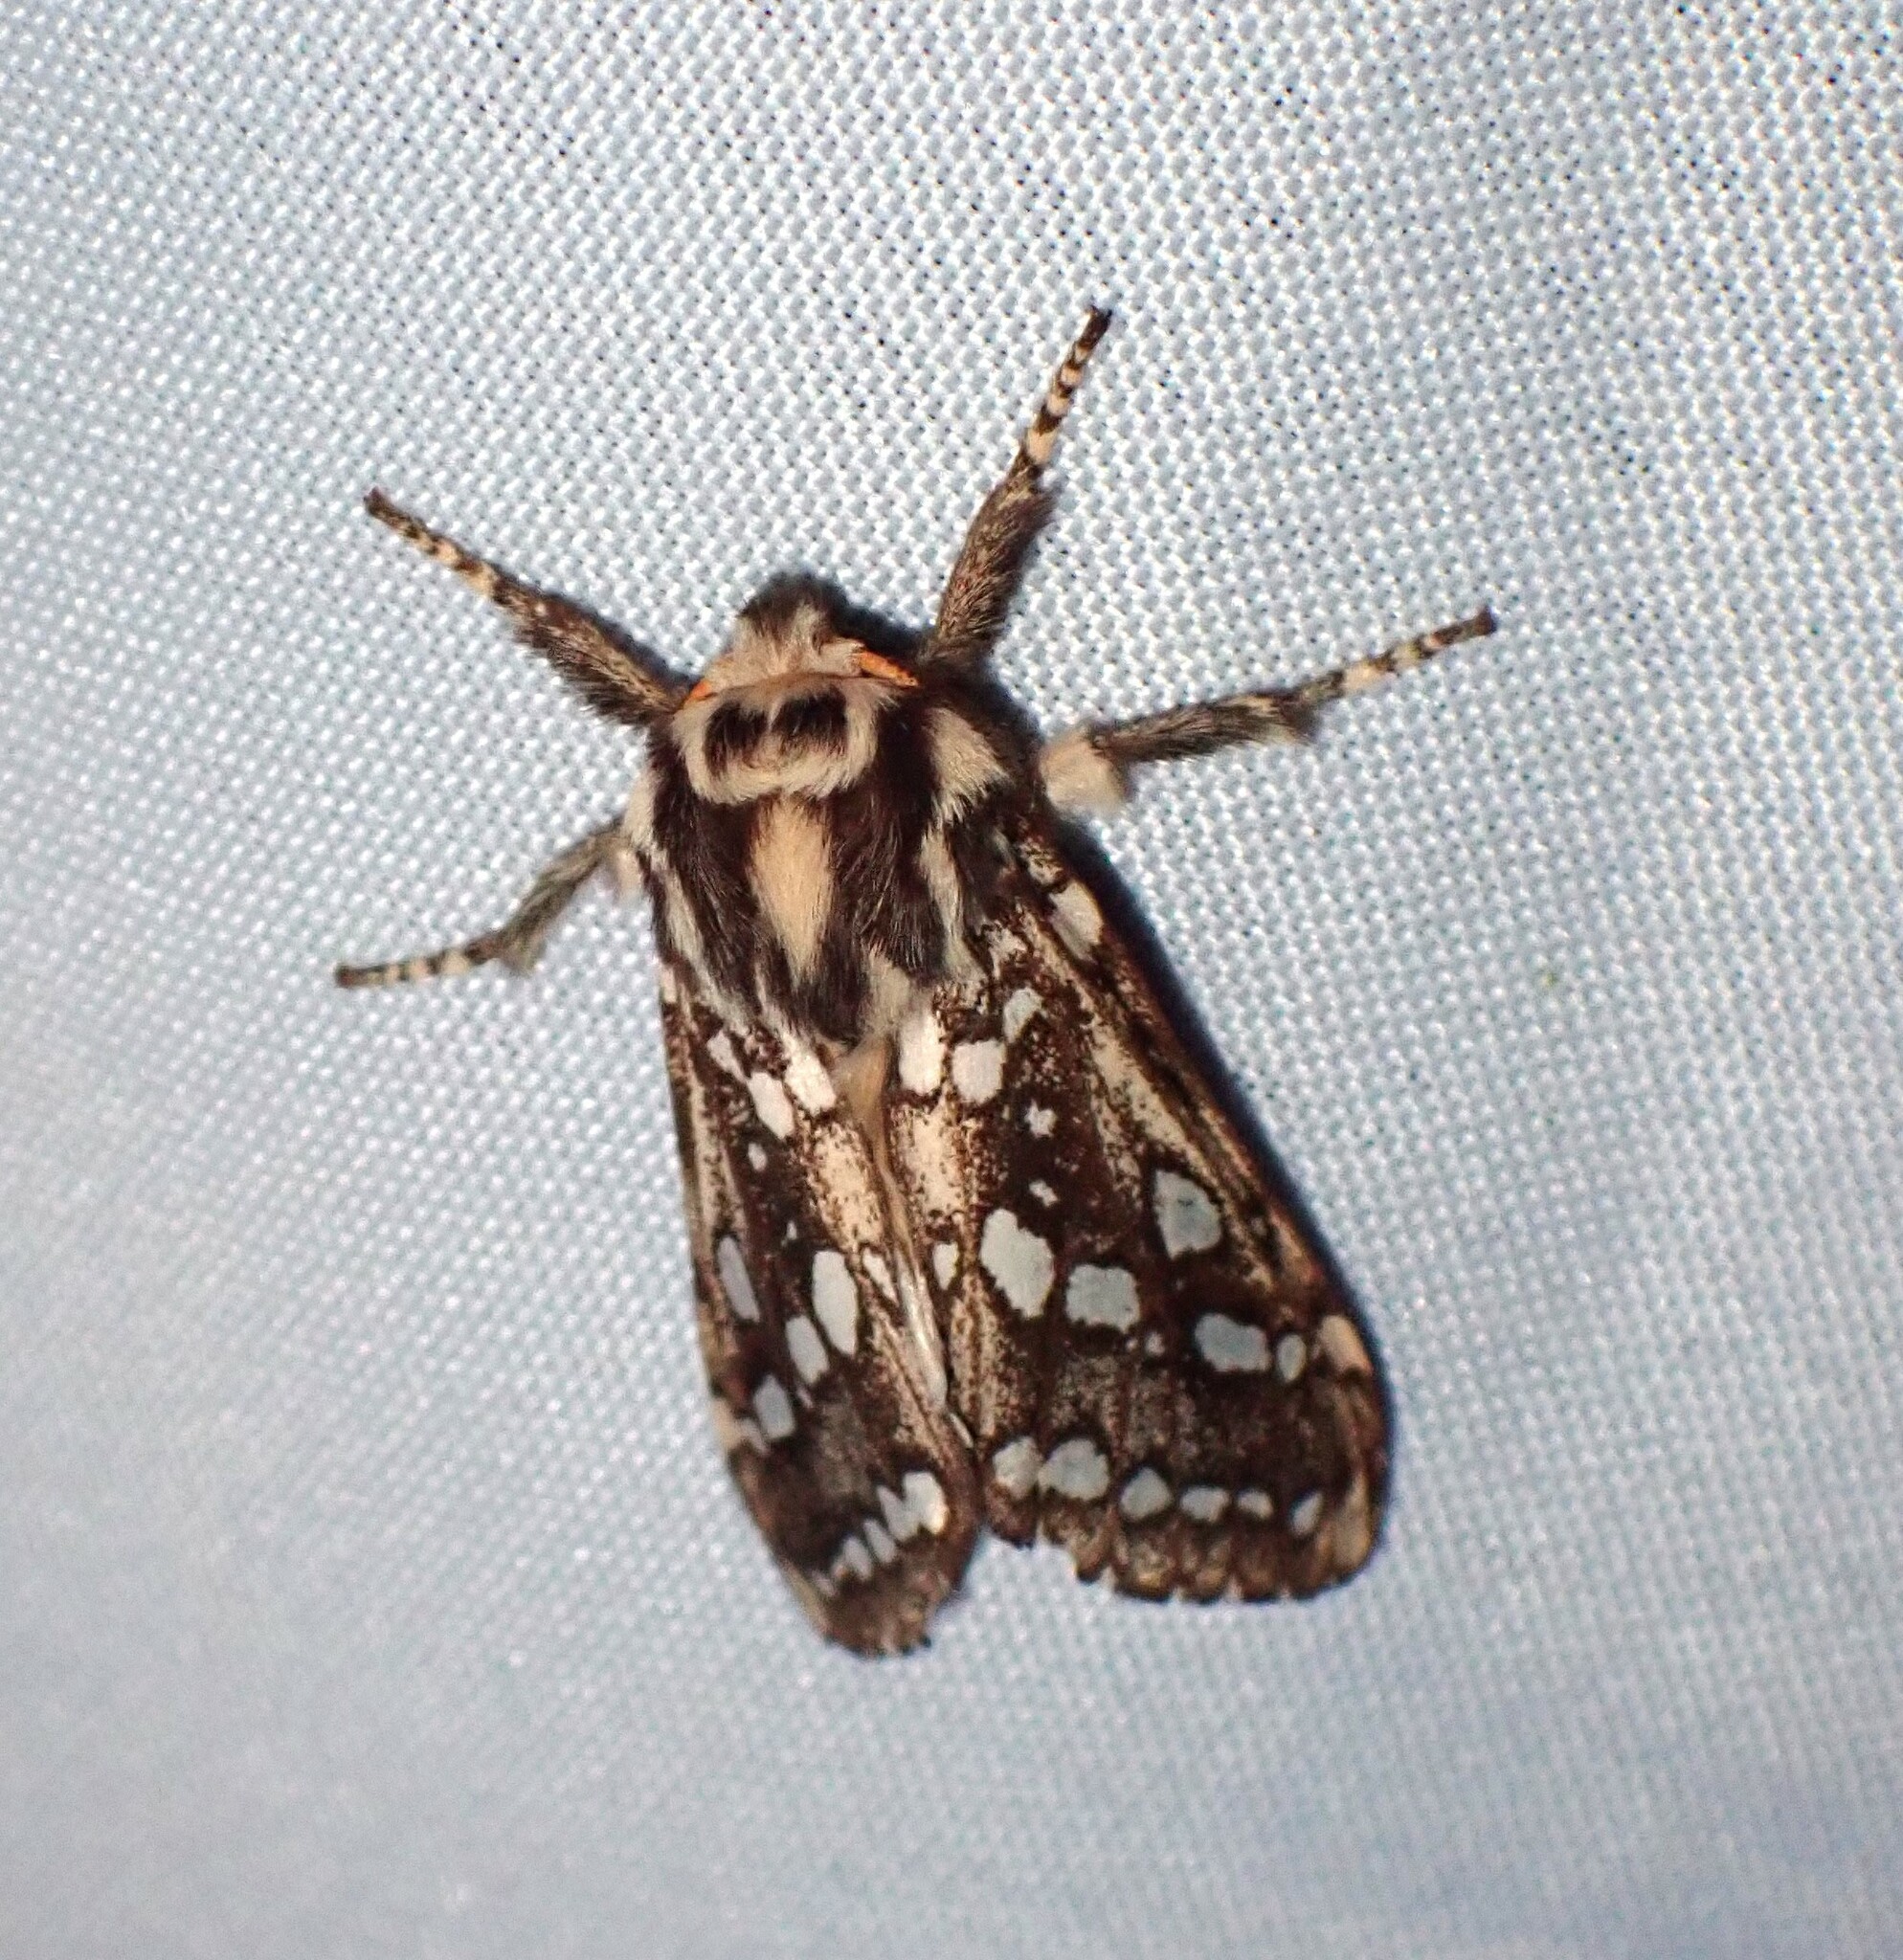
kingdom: Animalia
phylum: Arthropoda
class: Insecta
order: Lepidoptera
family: Erebidae
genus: Lophocampa
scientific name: Lophocampa argentata
